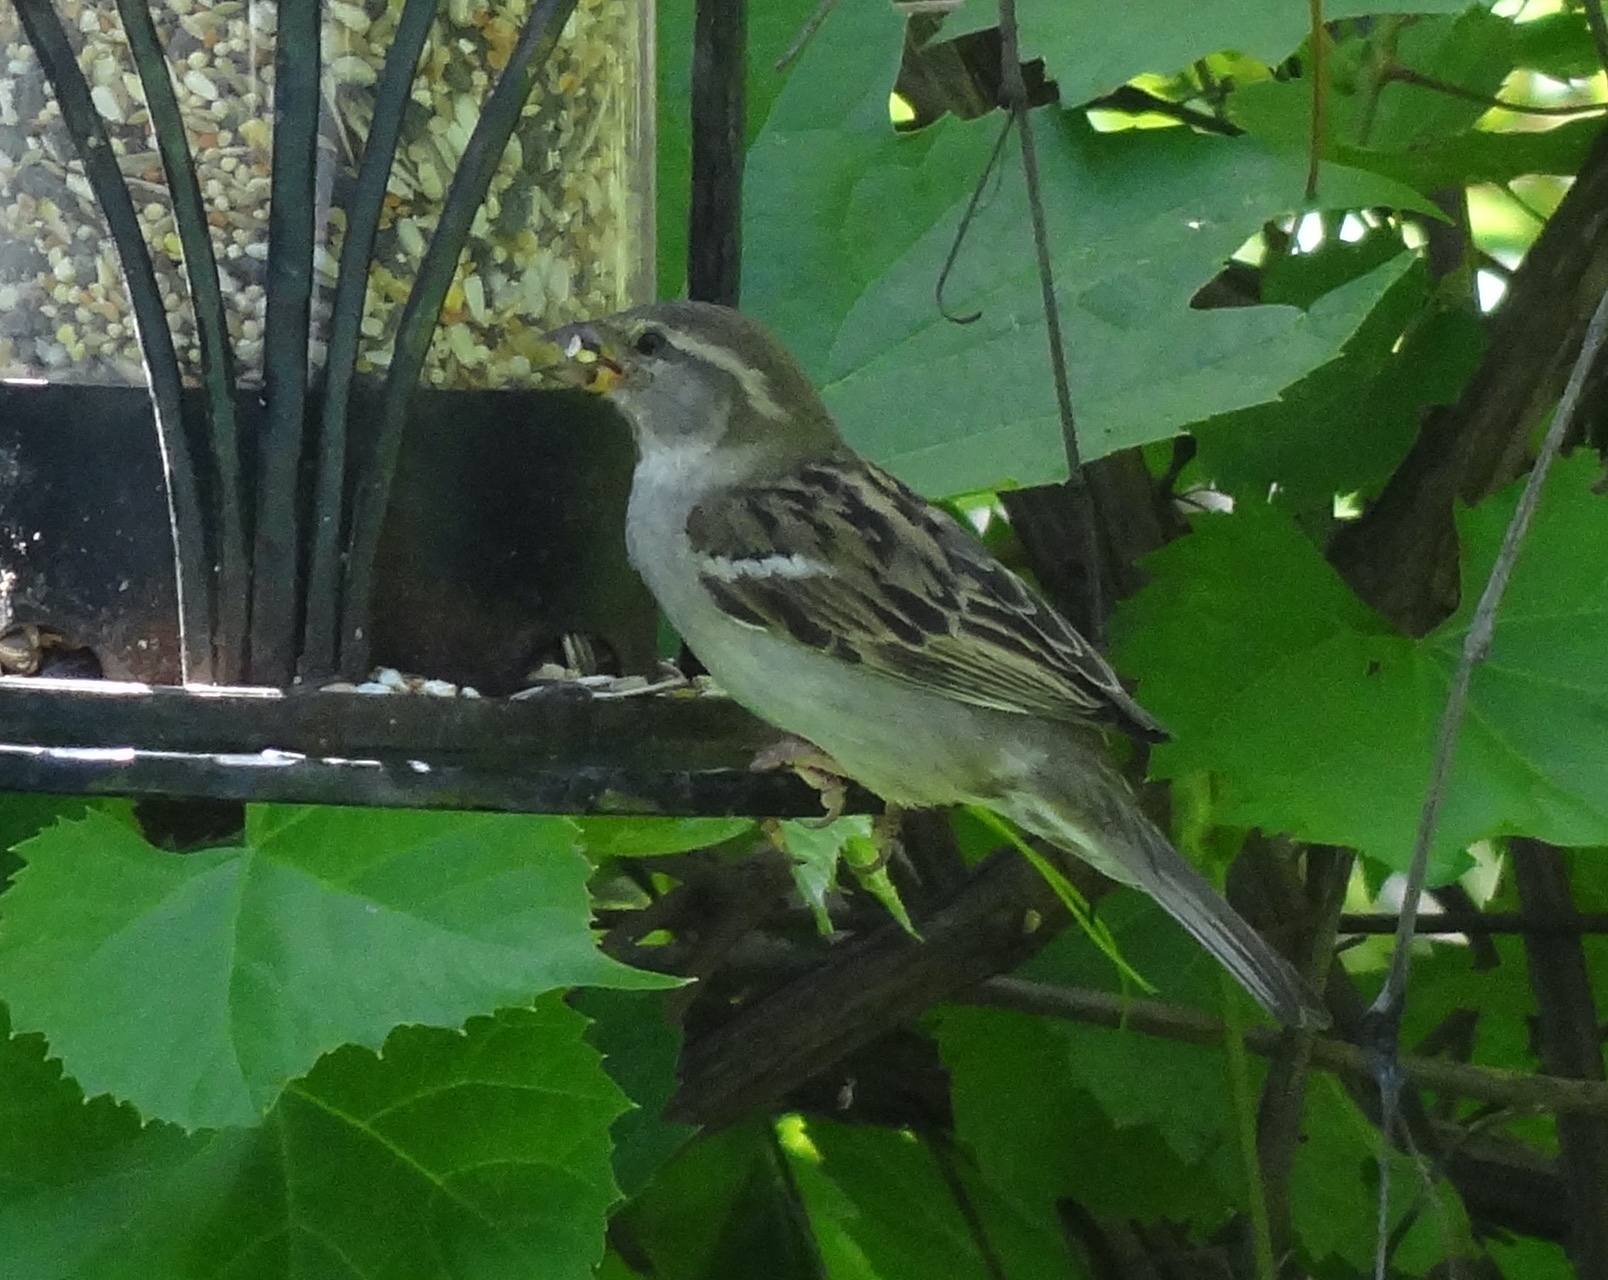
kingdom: Animalia
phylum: Chordata
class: Aves
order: Passeriformes
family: Passeridae
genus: Passer
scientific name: Passer domesticus
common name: House sparrow
